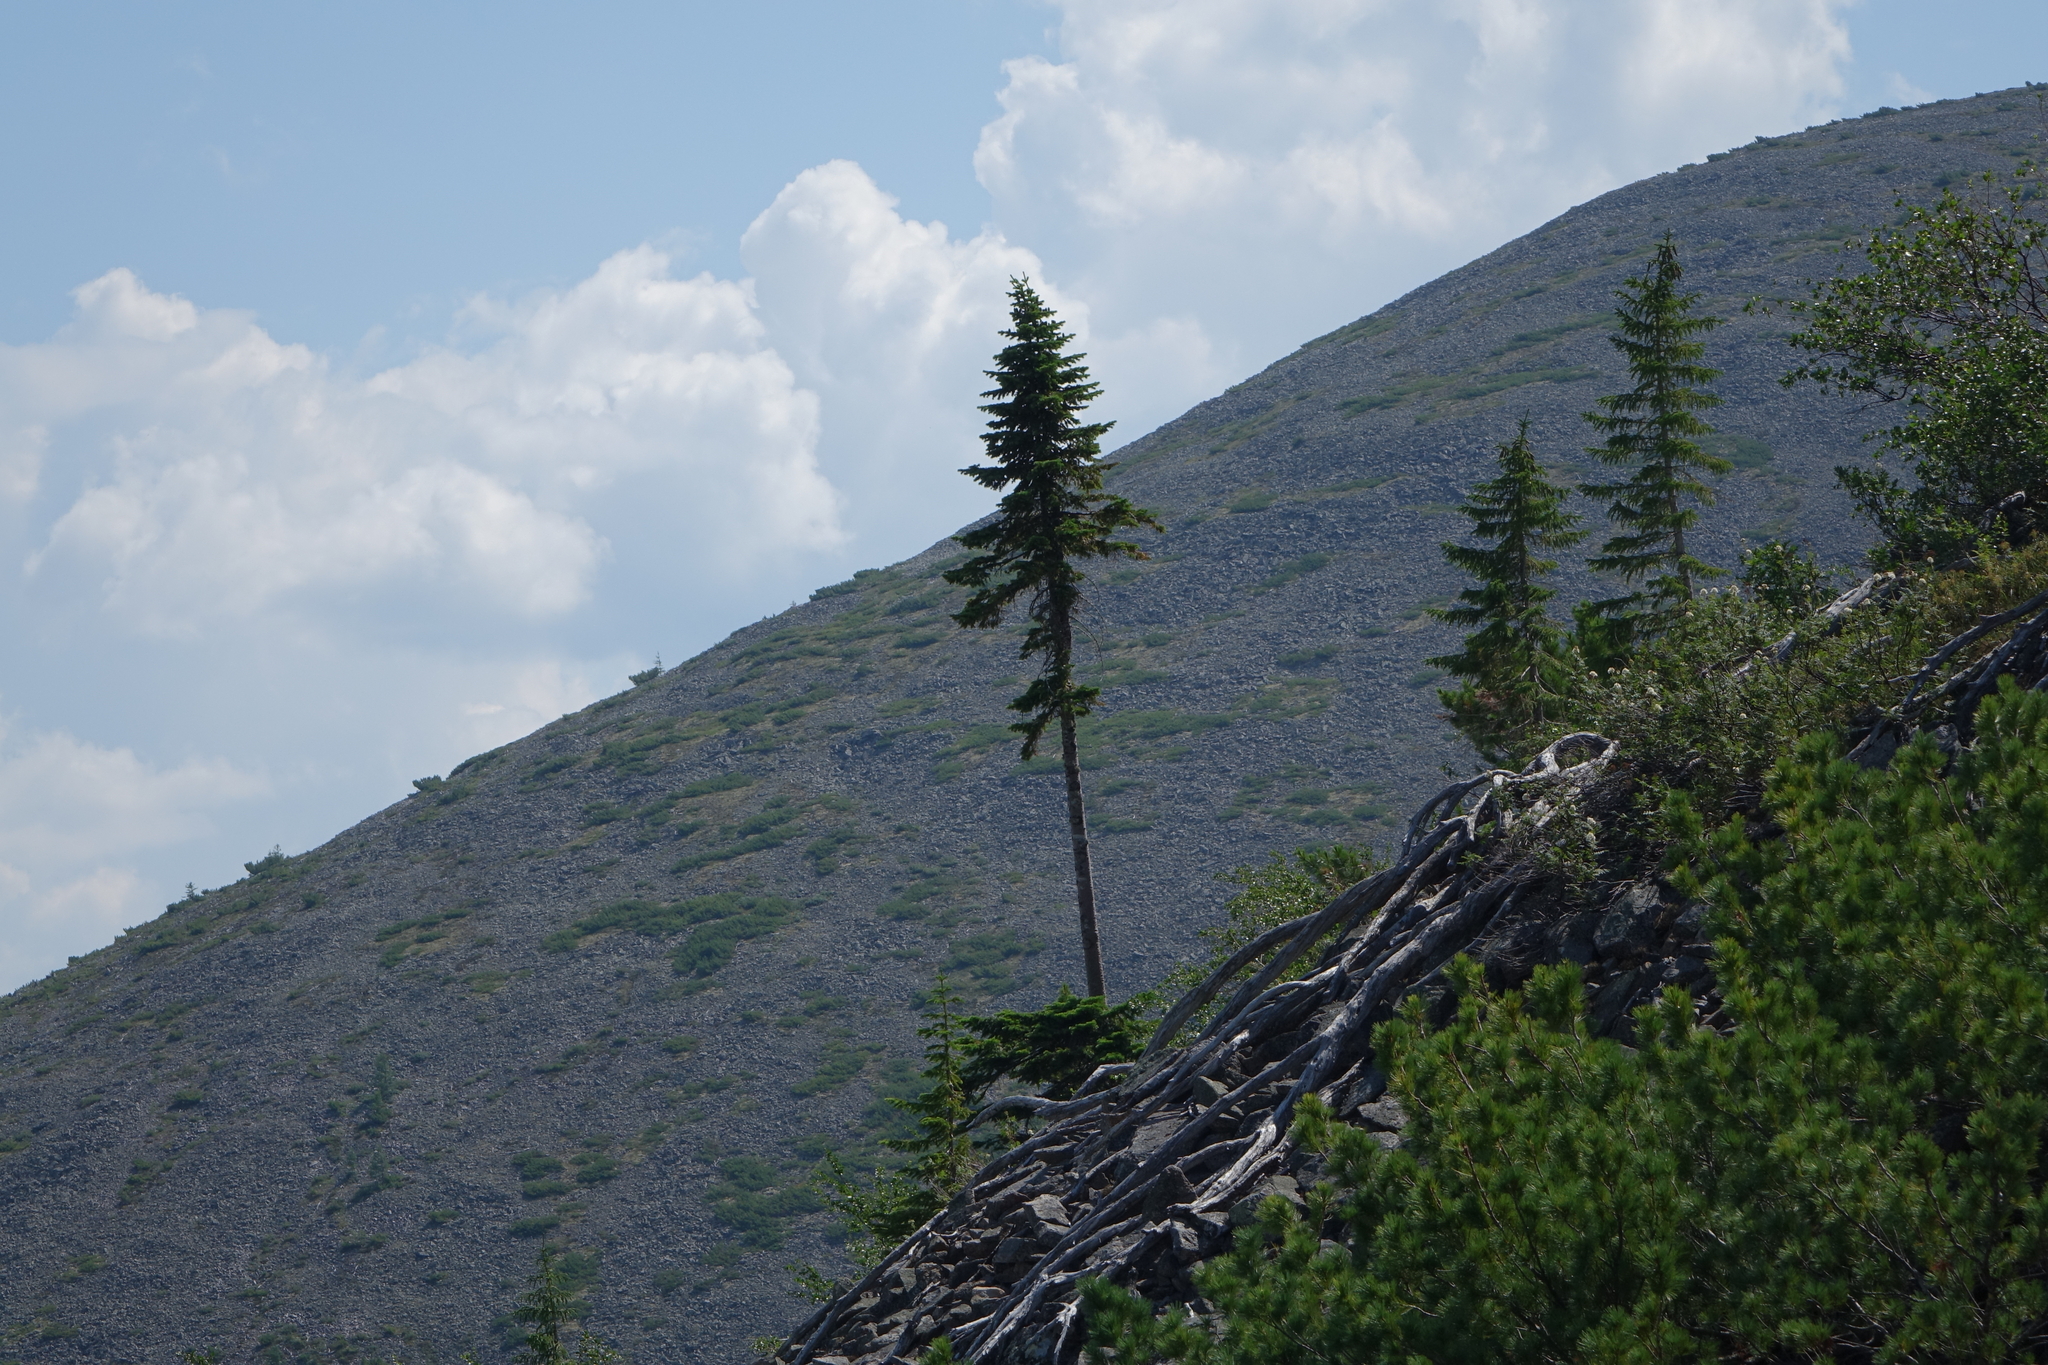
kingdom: Plantae
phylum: Tracheophyta
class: Pinopsida
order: Pinales
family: Pinaceae
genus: Abies
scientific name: Abies sibirica
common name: Siberian fir
